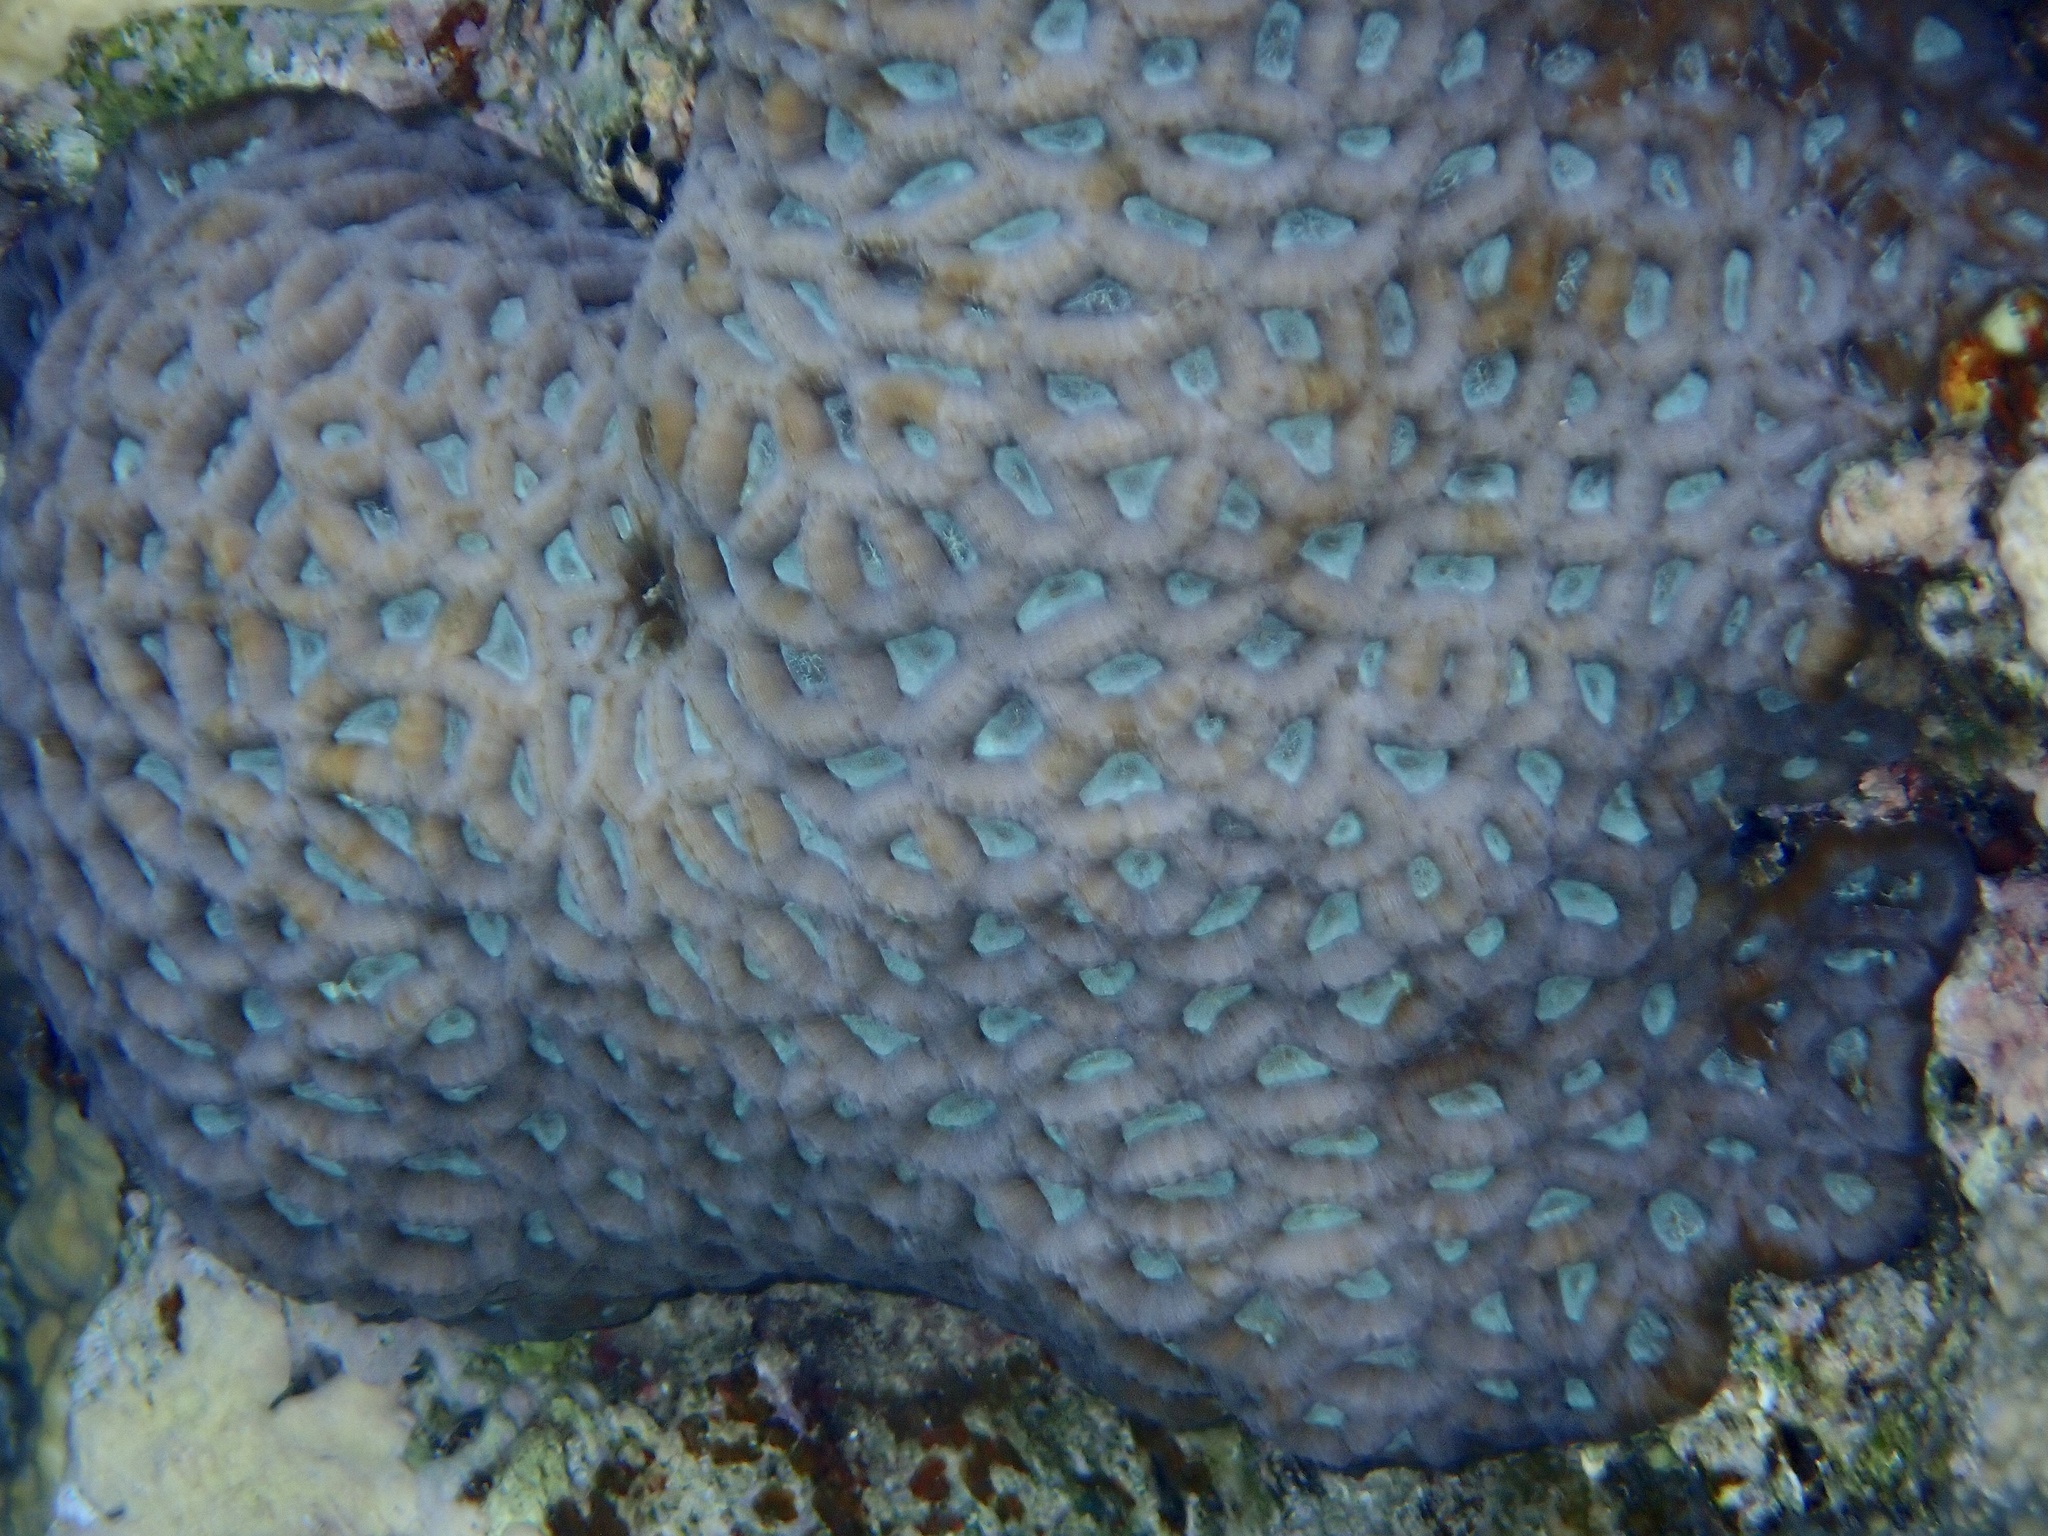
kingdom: Animalia
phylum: Cnidaria
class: Anthozoa
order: Scleractinia
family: Merulinidae
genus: Favites
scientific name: Favites vasta
